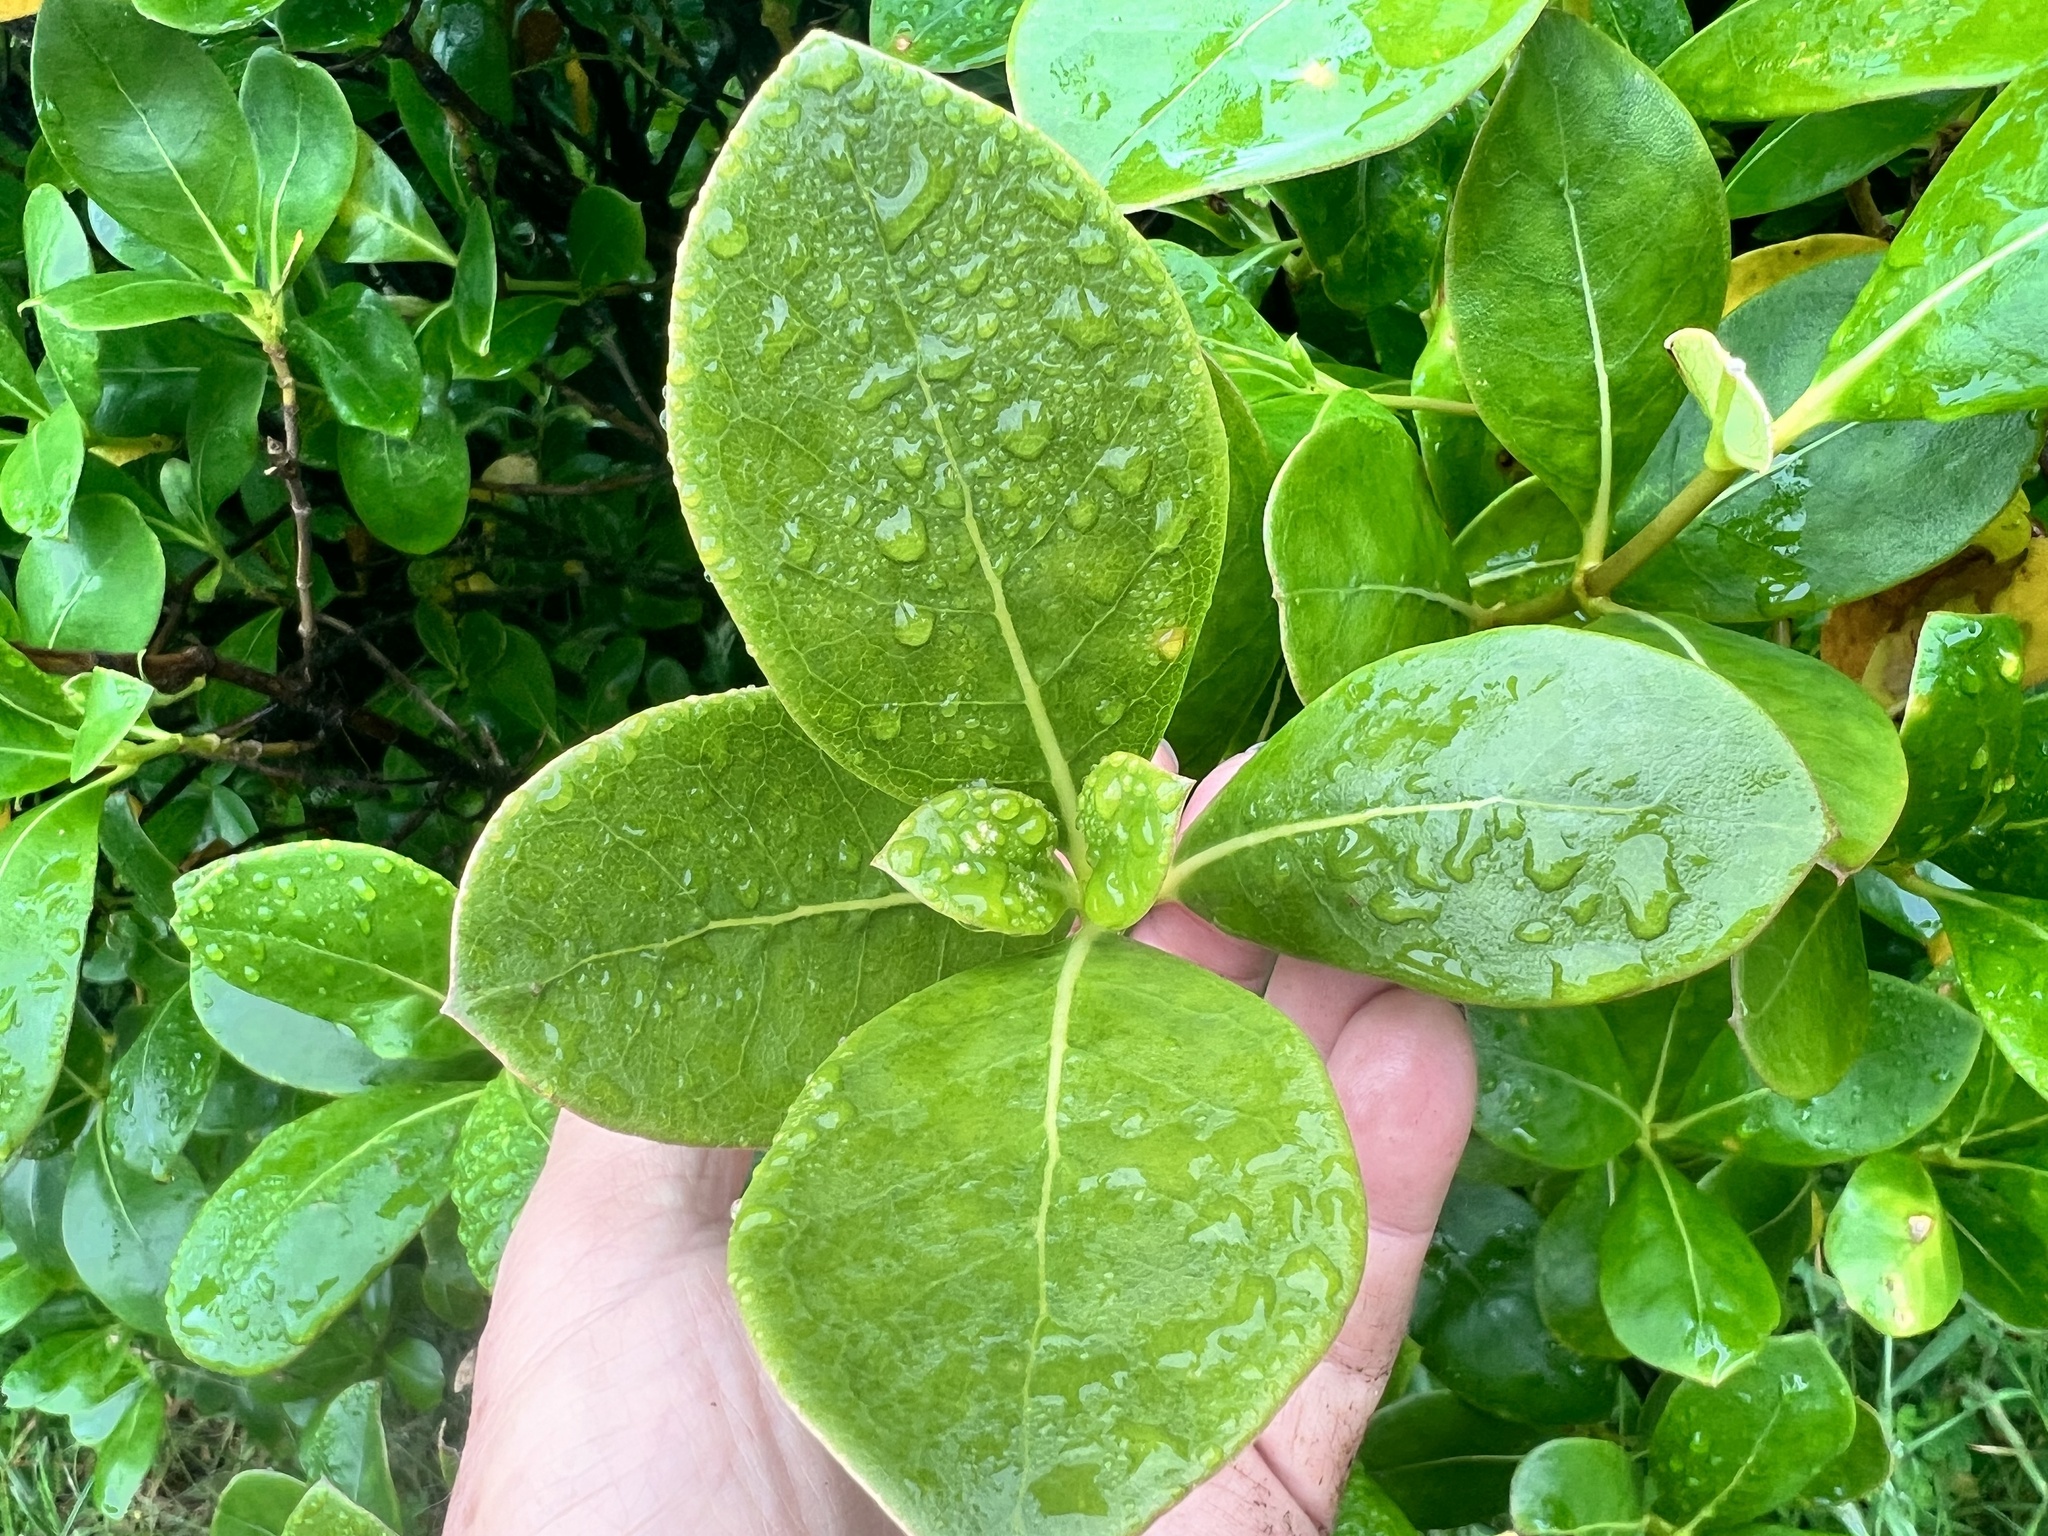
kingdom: Plantae
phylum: Tracheophyta
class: Magnoliopsida
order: Gentianales
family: Rubiaceae
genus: Coprosma
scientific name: Coprosma lucida
